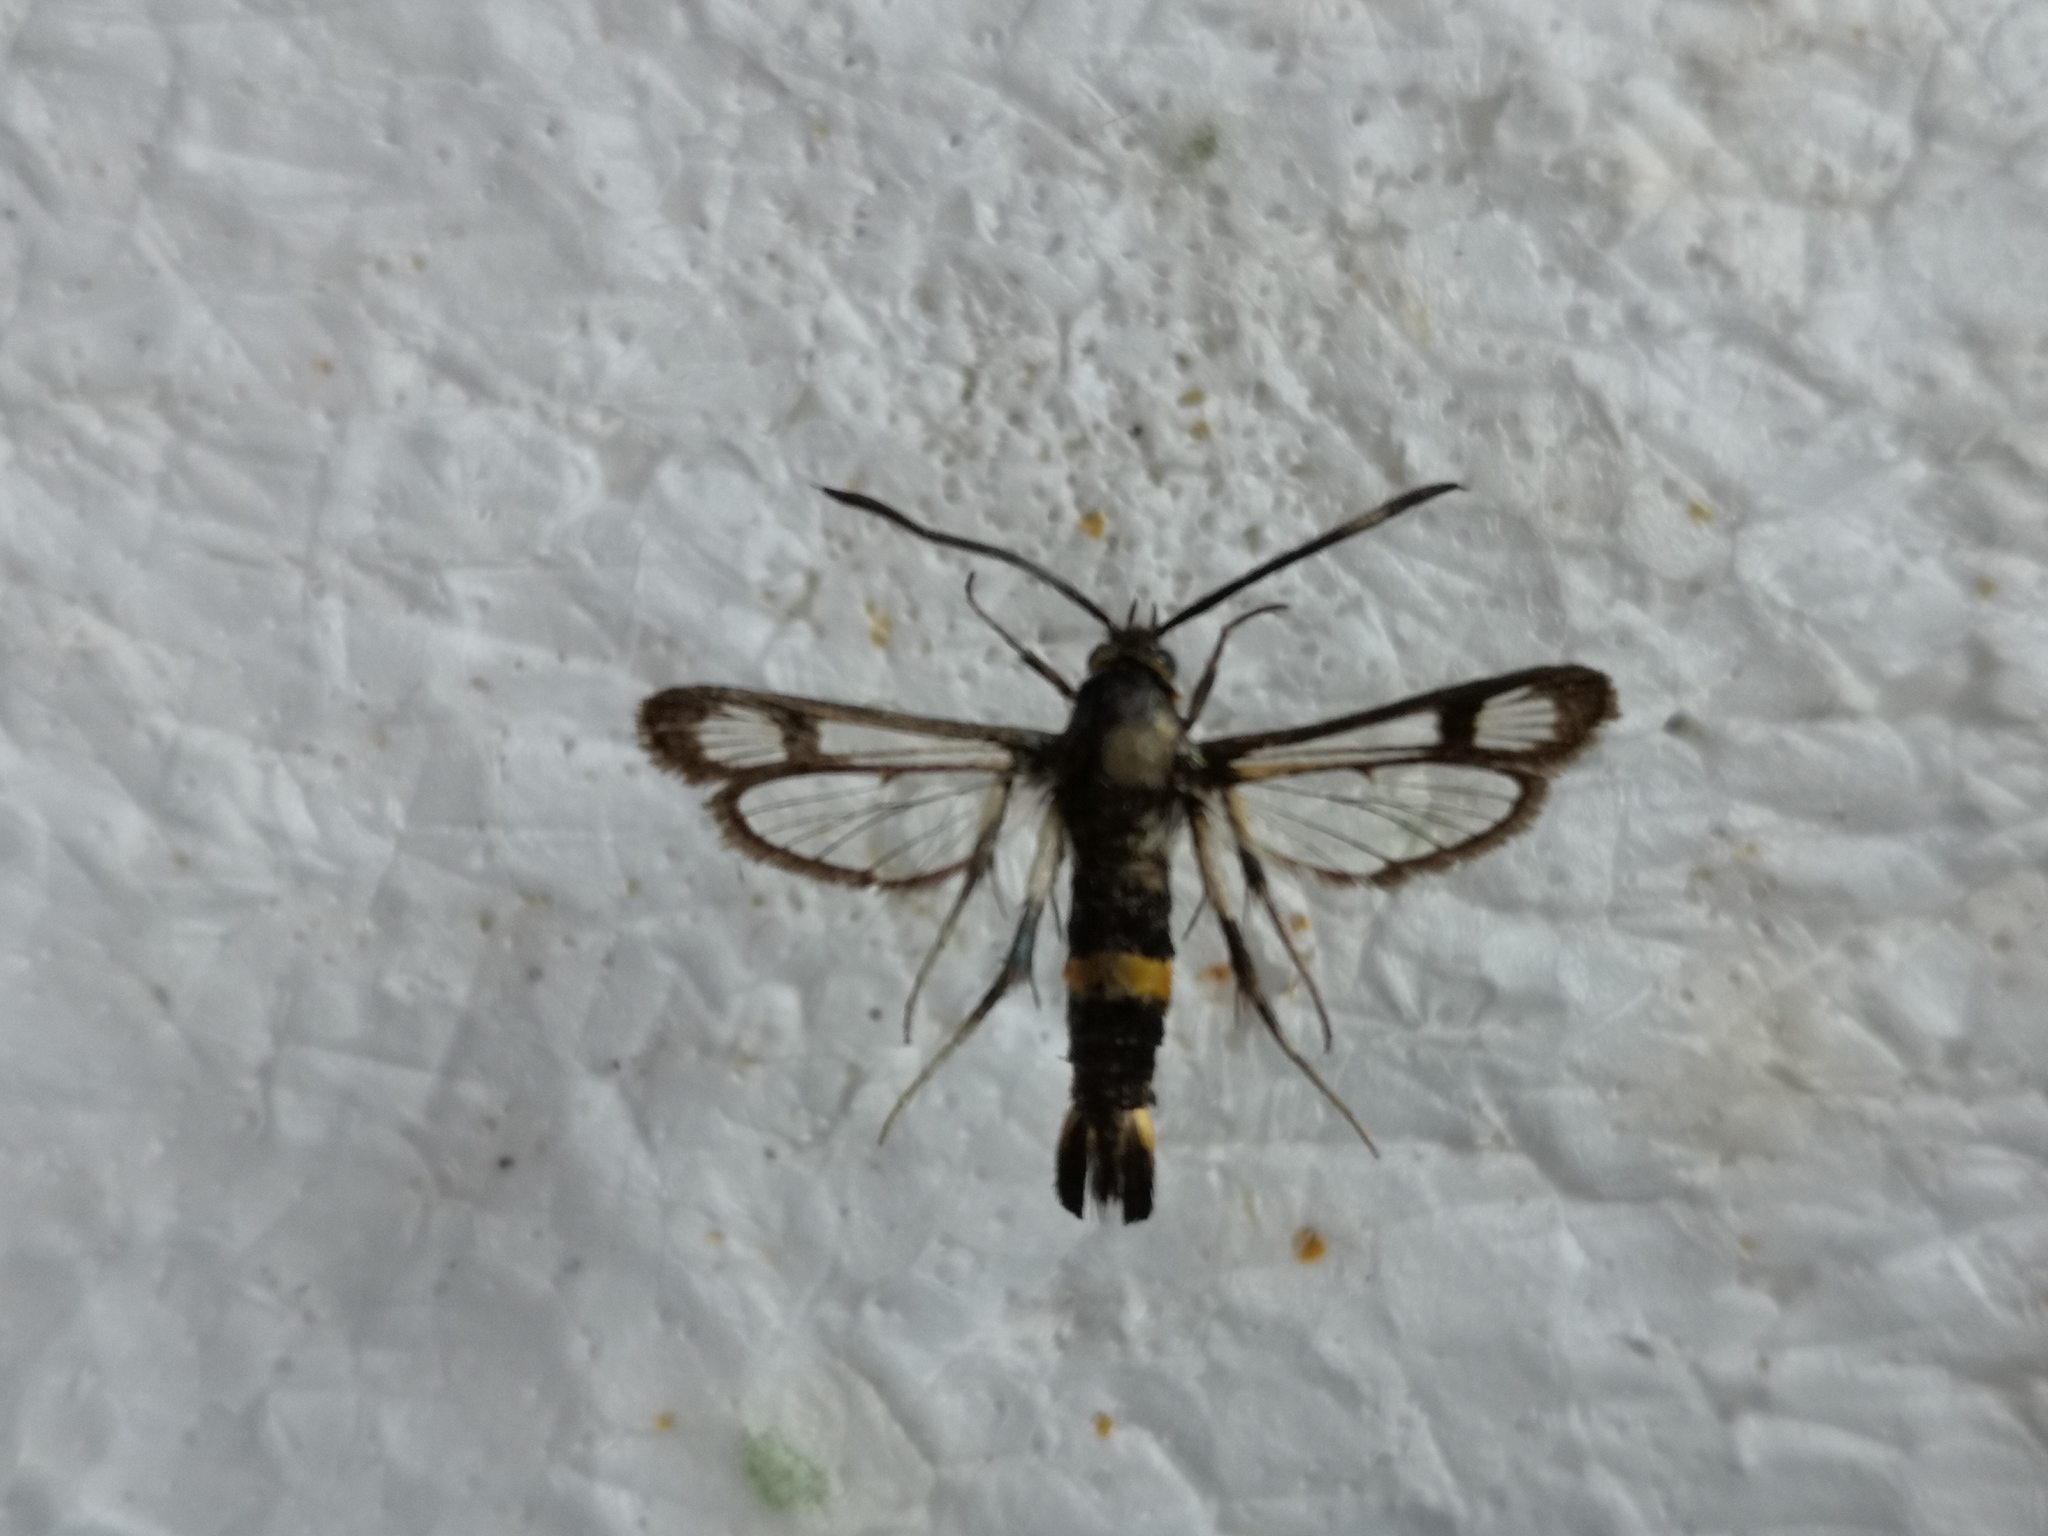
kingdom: Animalia
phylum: Arthropoda
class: Insecta
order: Lepidoptera
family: Sesiidae
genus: Pyropteron
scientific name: Pyropteron pipiziformis
